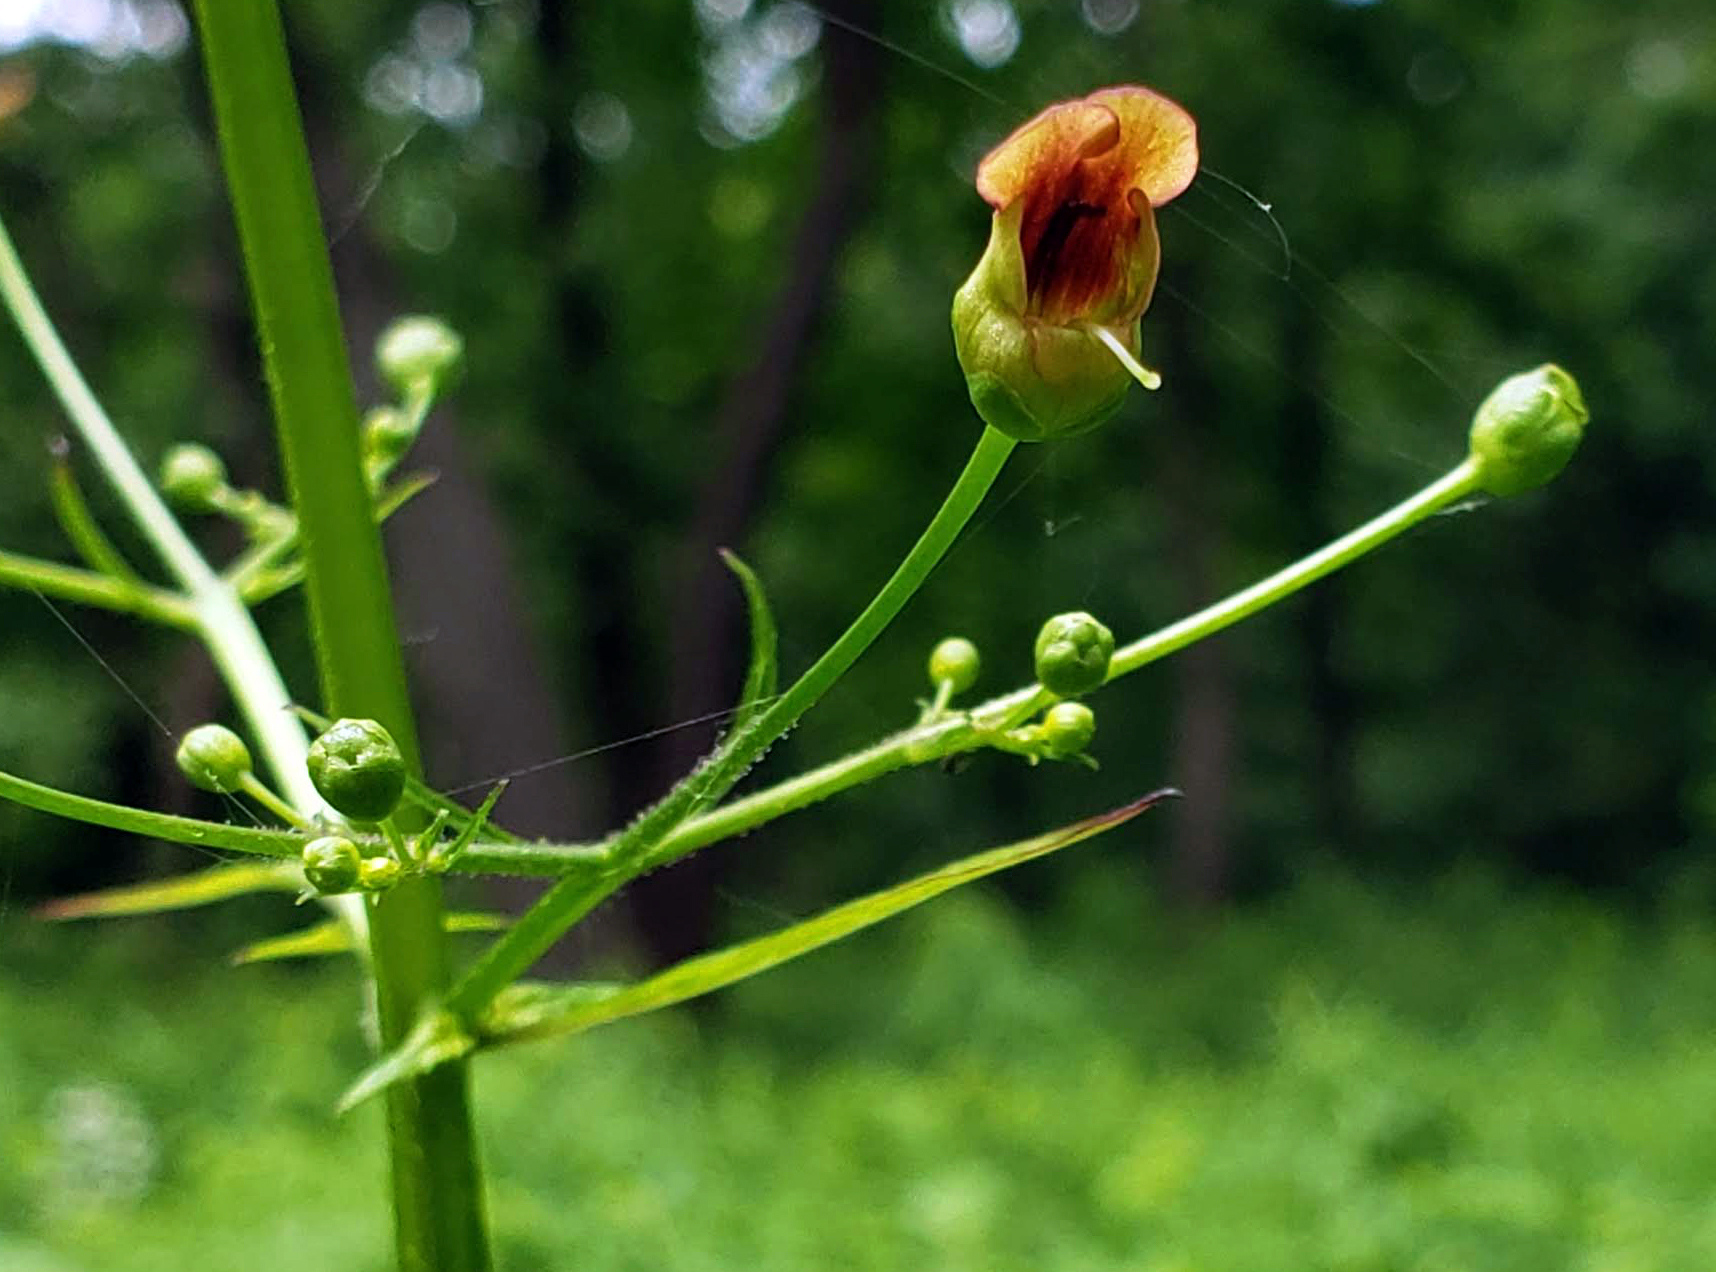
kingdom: Plantae
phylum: Tracheophyta
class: Magnoliopsida
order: Lamiales
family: Scrophulariaceae
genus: Scrophularia
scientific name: Scrophularia marilandica
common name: Eastern figwort
